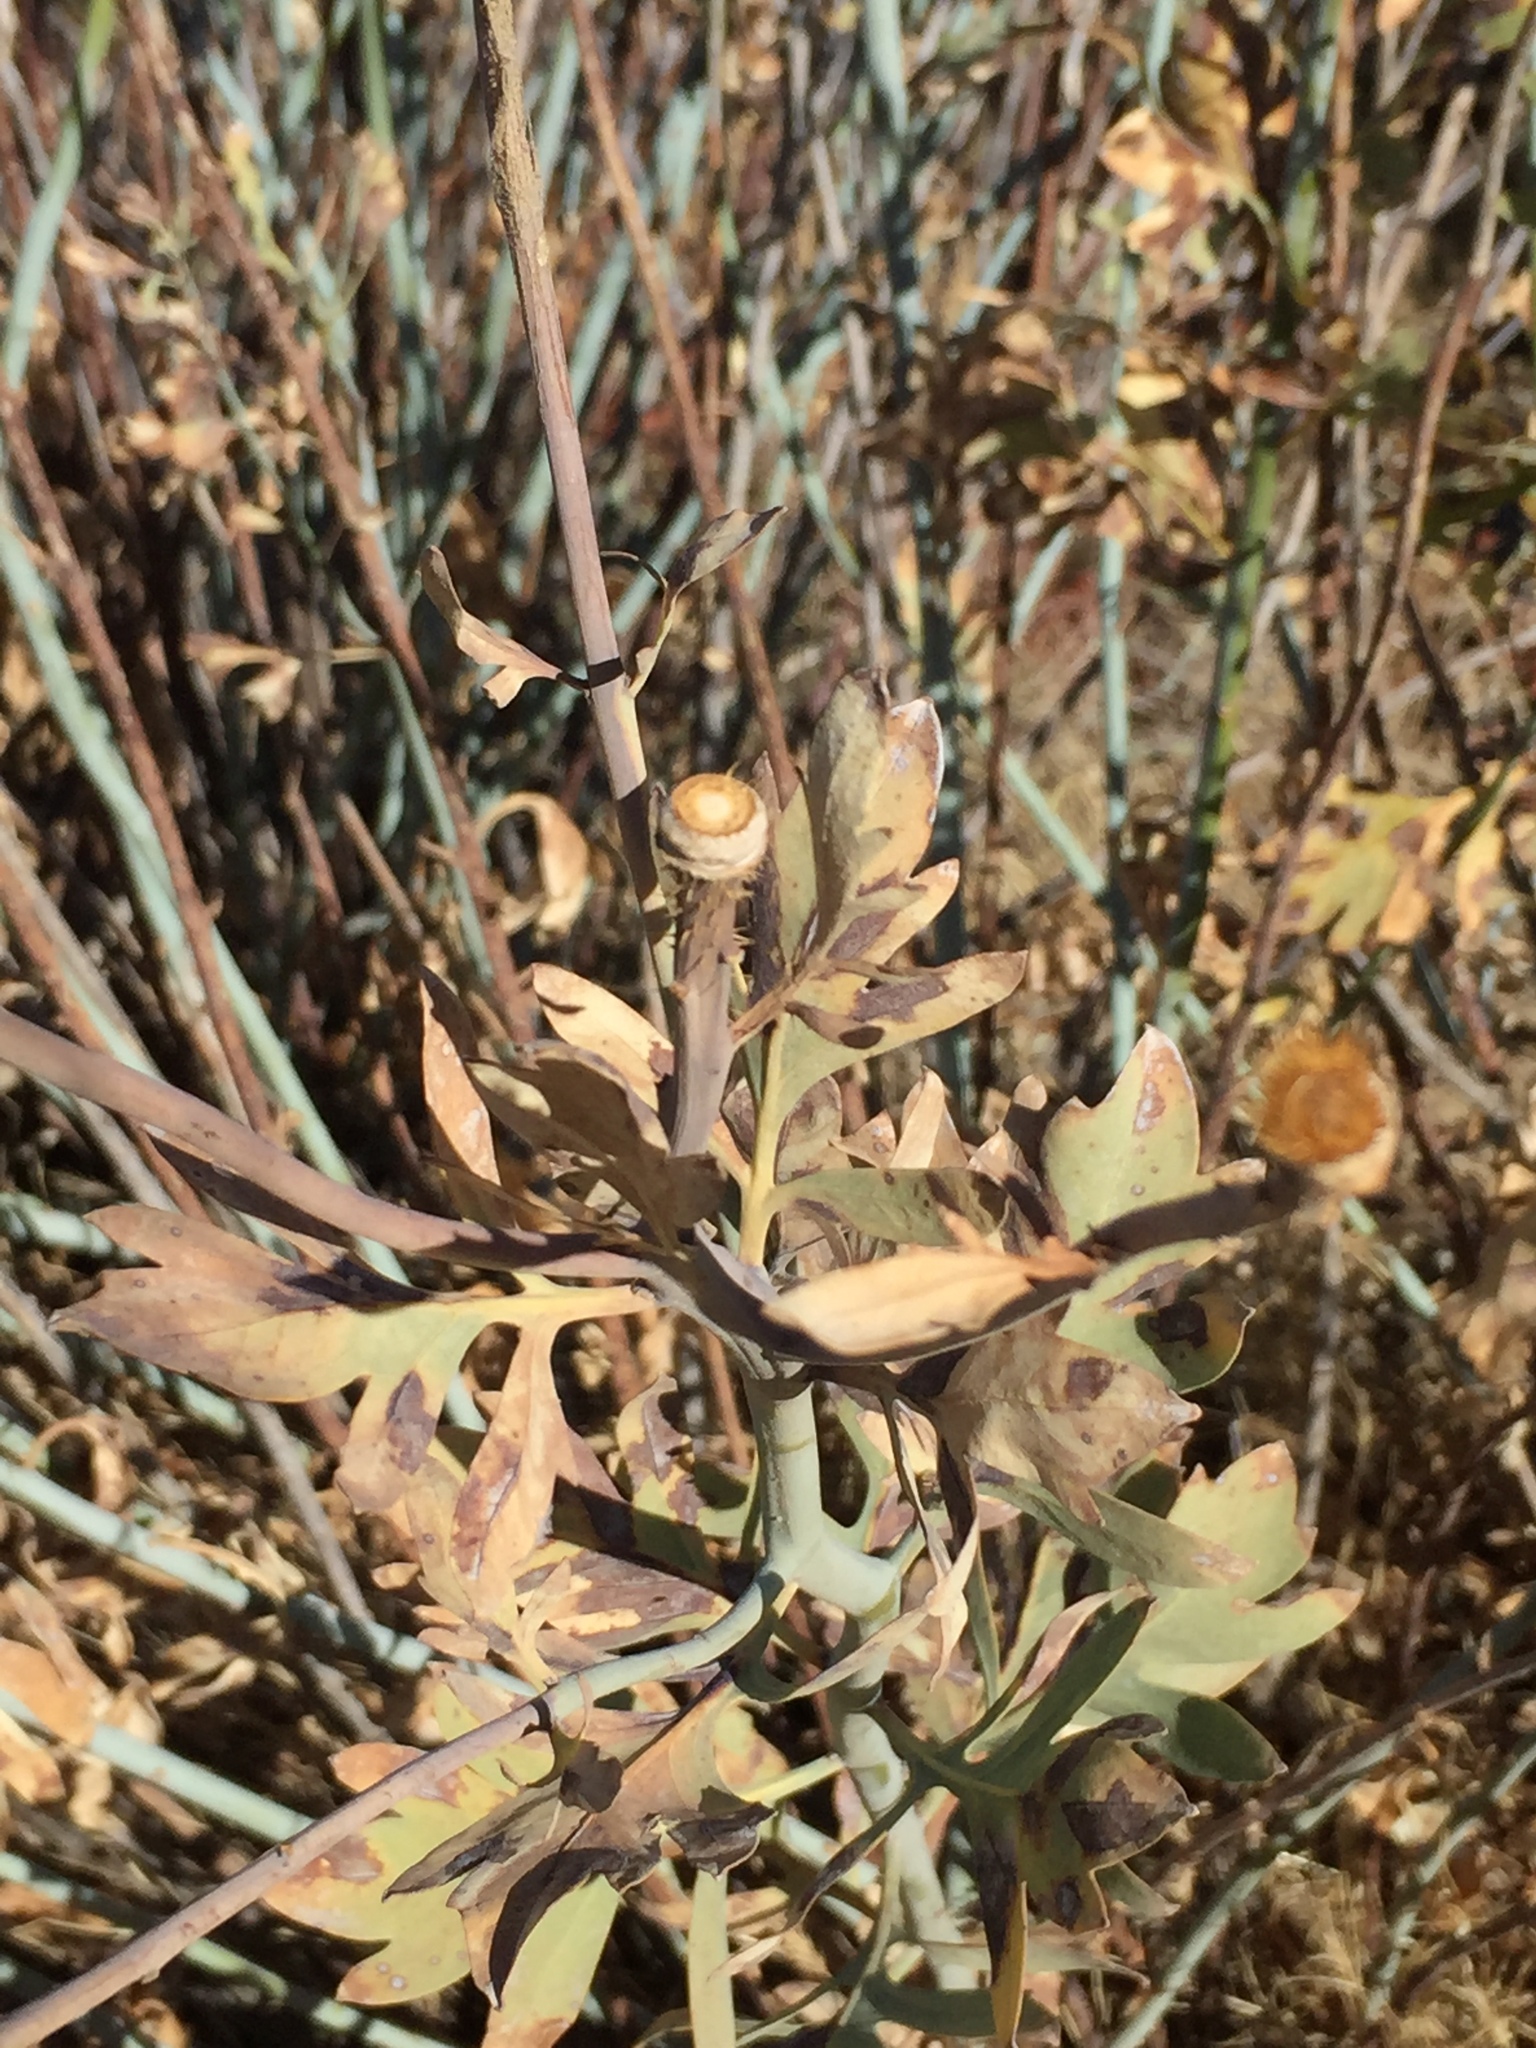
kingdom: Plantae
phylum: Tracheophyta
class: Magnoliopsida
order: Ranunculales
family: Papaveraceae
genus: Romneya
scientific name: Romneya trichocalyx
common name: Hairy matilija-poppy
